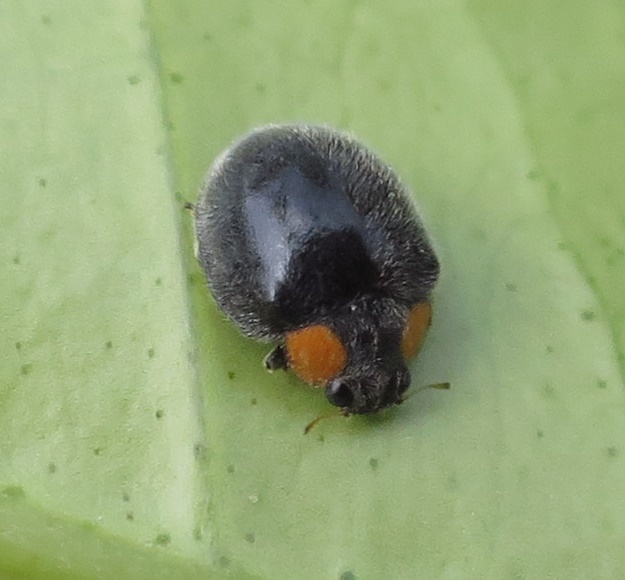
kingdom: Animalia
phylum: Arthropoda
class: Insecta
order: Coleoptera
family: Coccinellidae
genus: Scymnodes
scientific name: Scymnodes lividigaster
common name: Yellowshouldered lady beetle
